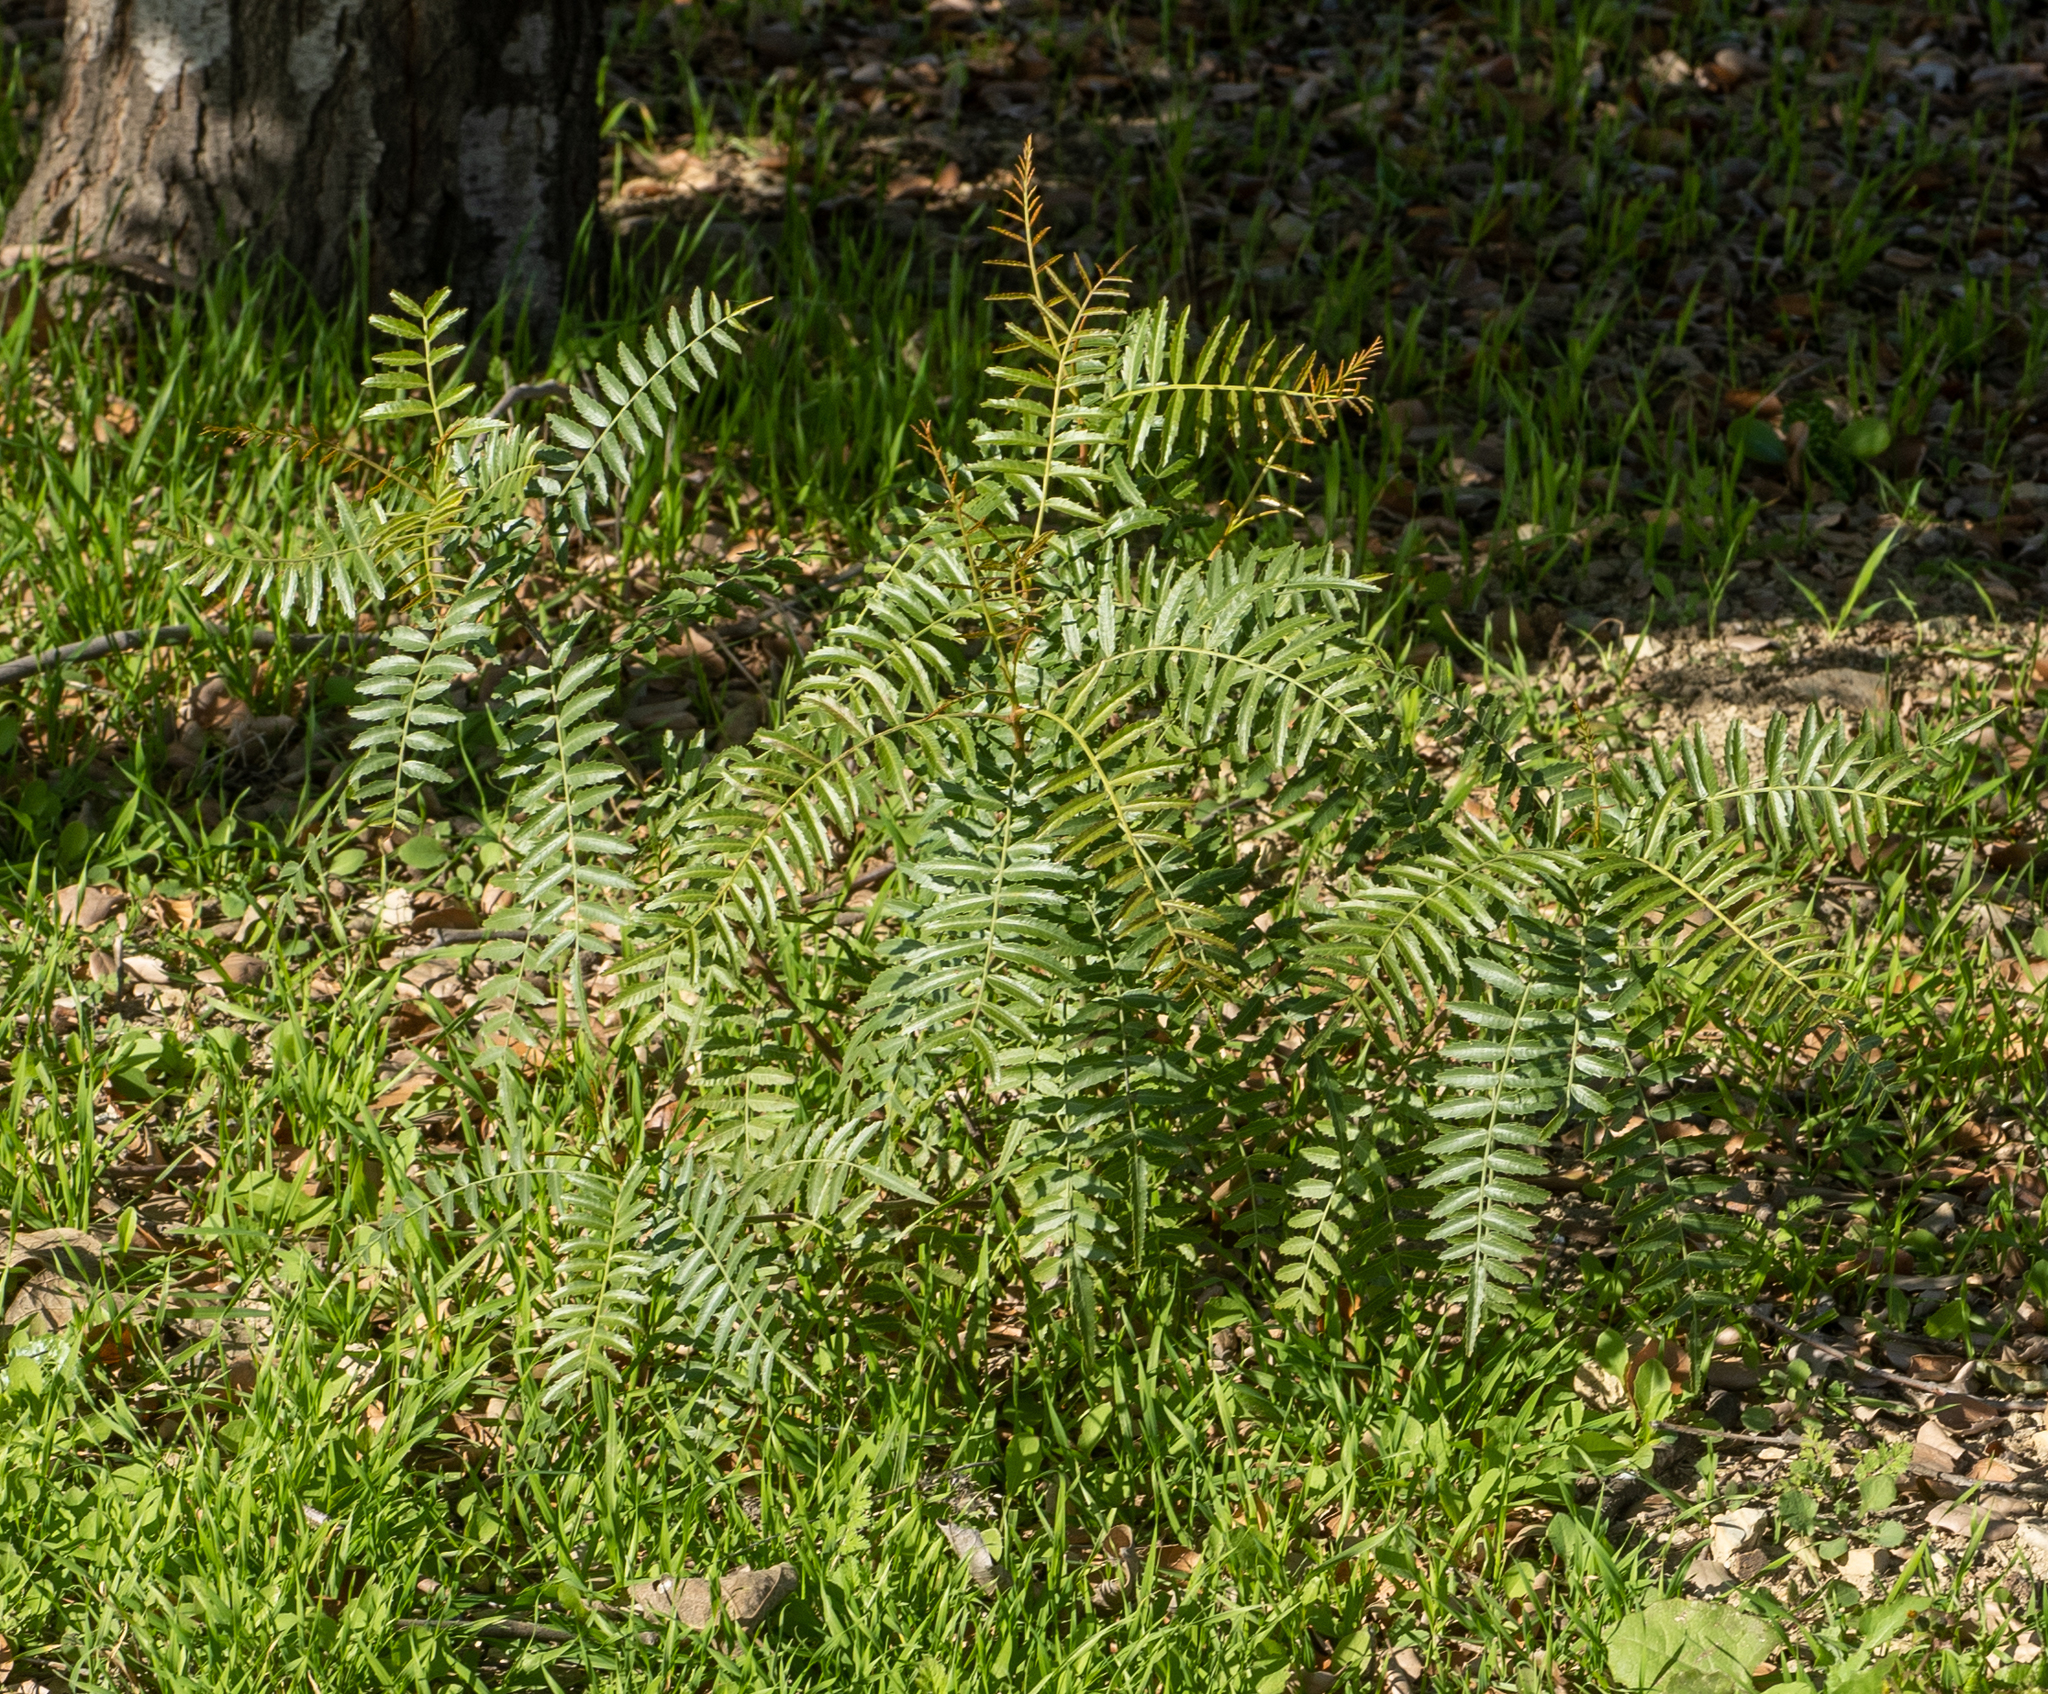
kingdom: Plantae
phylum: Tracheophyta
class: Magnoliopsida
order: Sapindales
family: Anacardiaceae
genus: Schinus
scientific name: Schinus molle
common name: Peruvian peppertree
